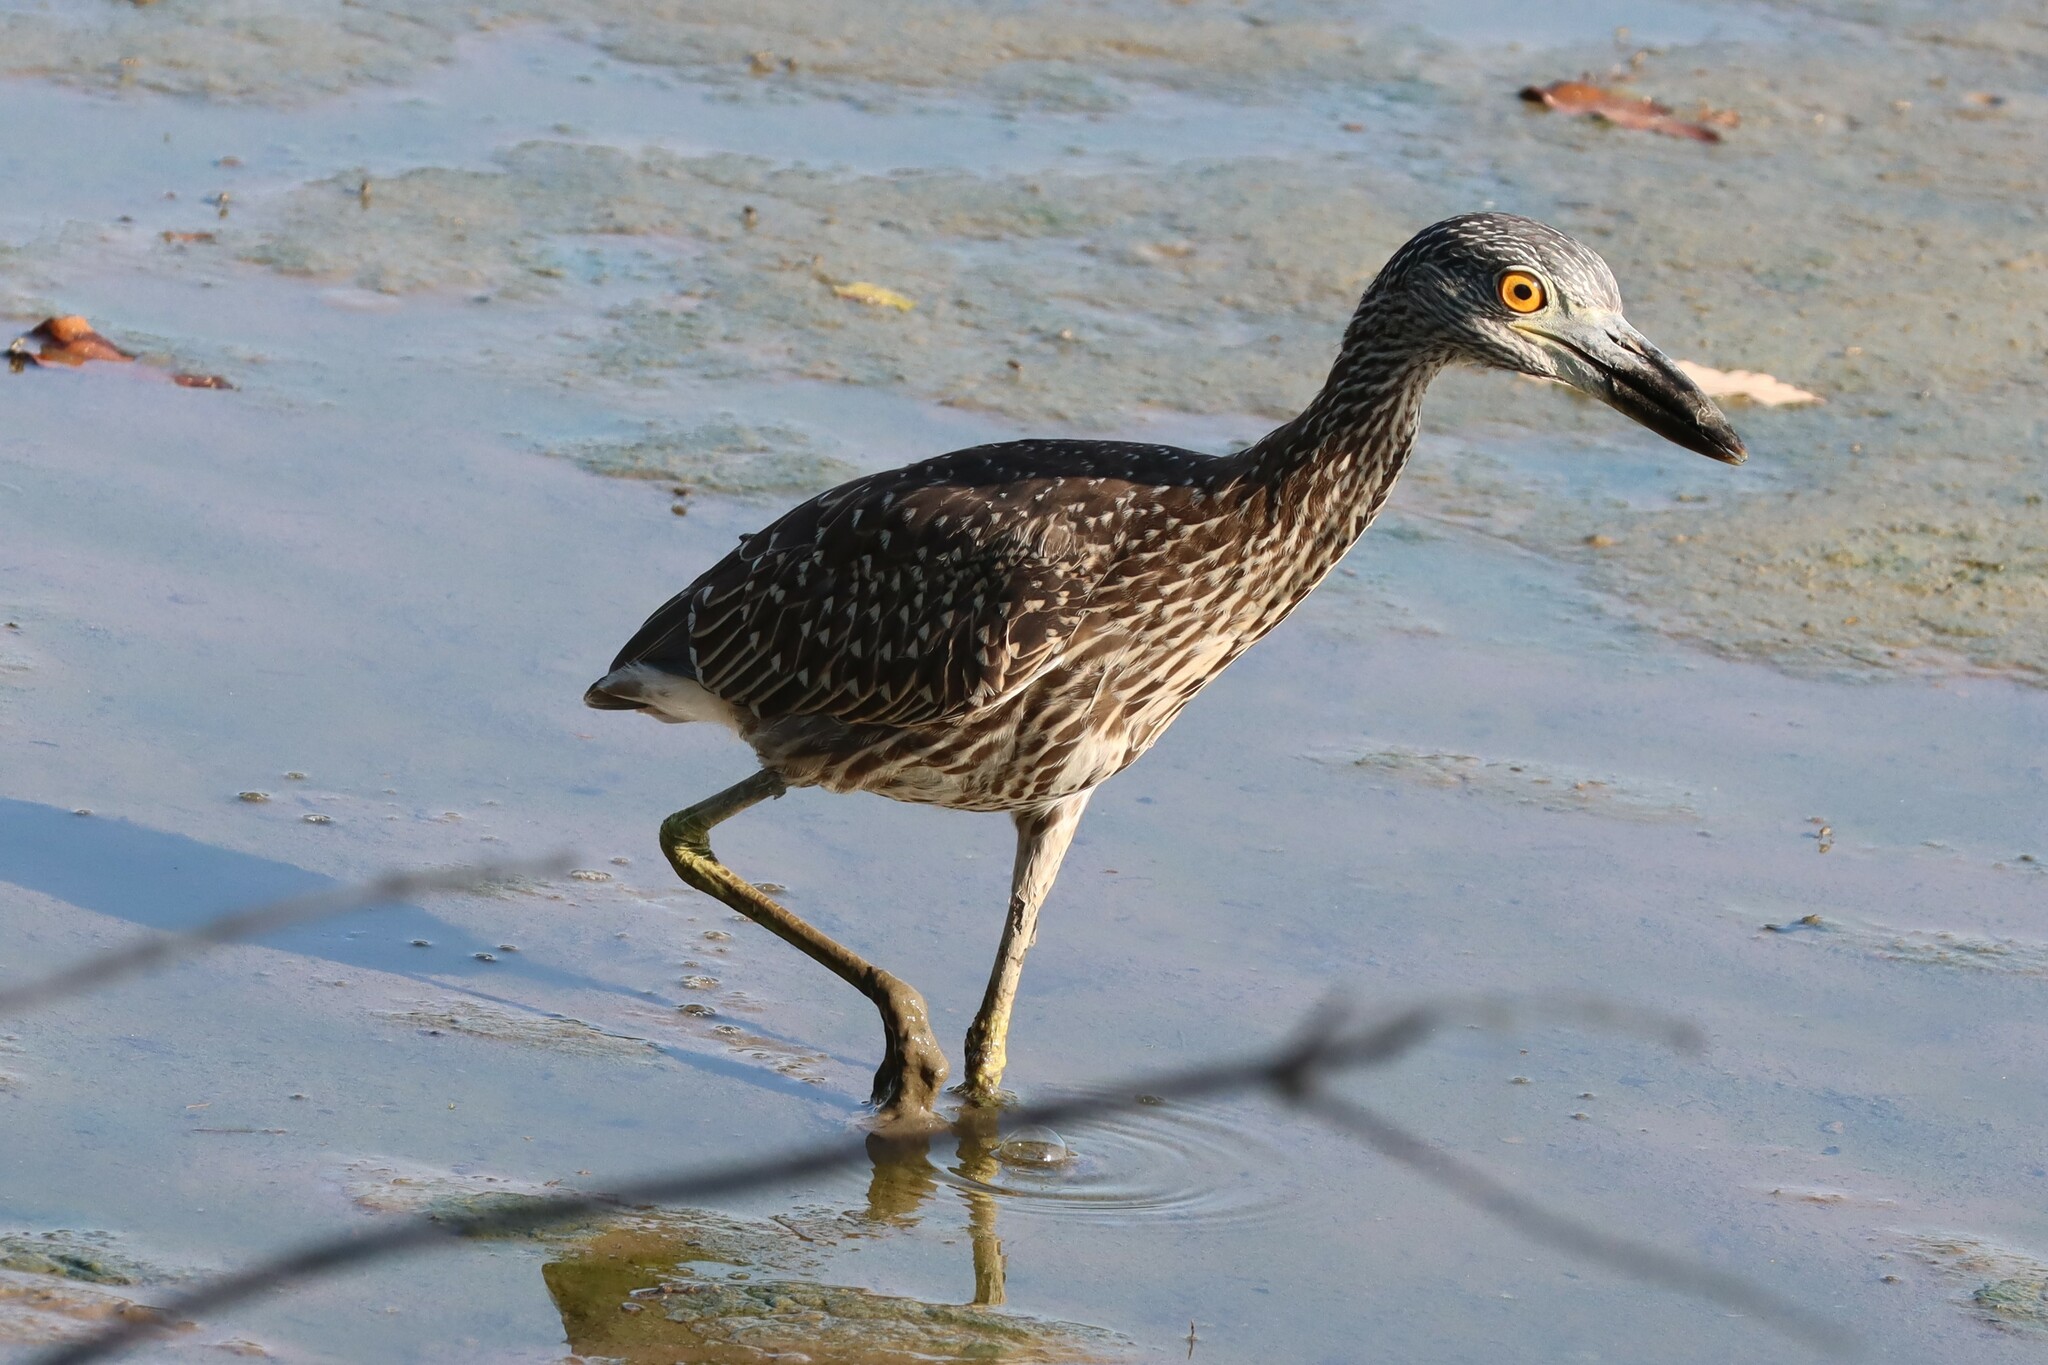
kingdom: Animalia
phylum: Chordata
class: Aves
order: Pelecaniformes
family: Ardeidae
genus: Nyctanassa
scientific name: Nyctanassa violacea
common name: Yellow-crowned night heron
